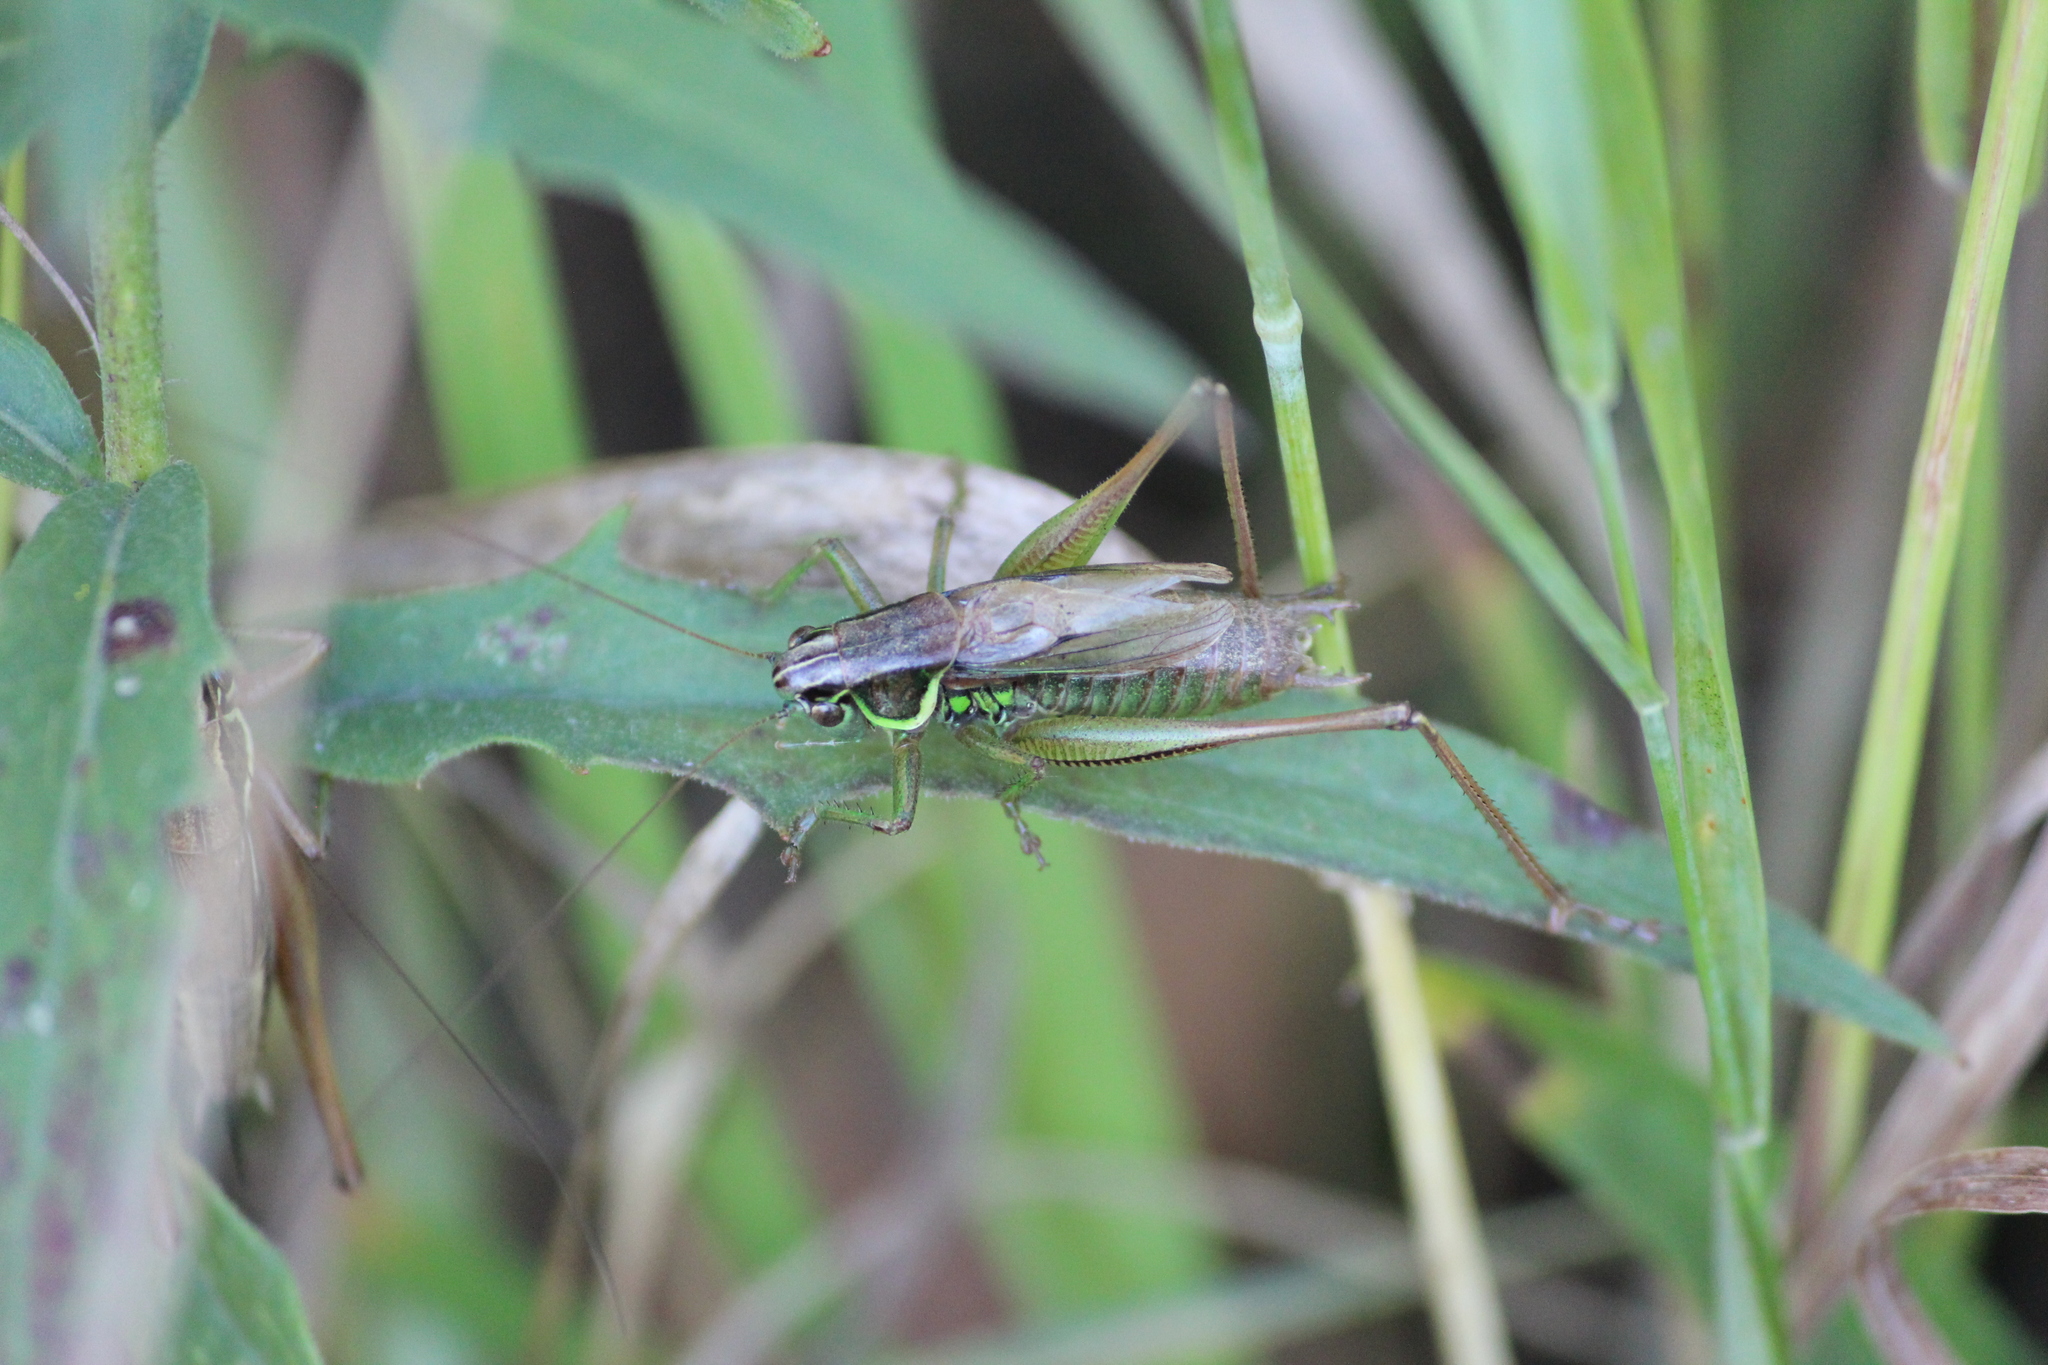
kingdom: Animalia
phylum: Arthropoda
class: Insecta
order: Orthoptera
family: Tettigoniidae
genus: Roeseliana
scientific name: Roeseliana roeselii
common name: Roesel's bush cricket
